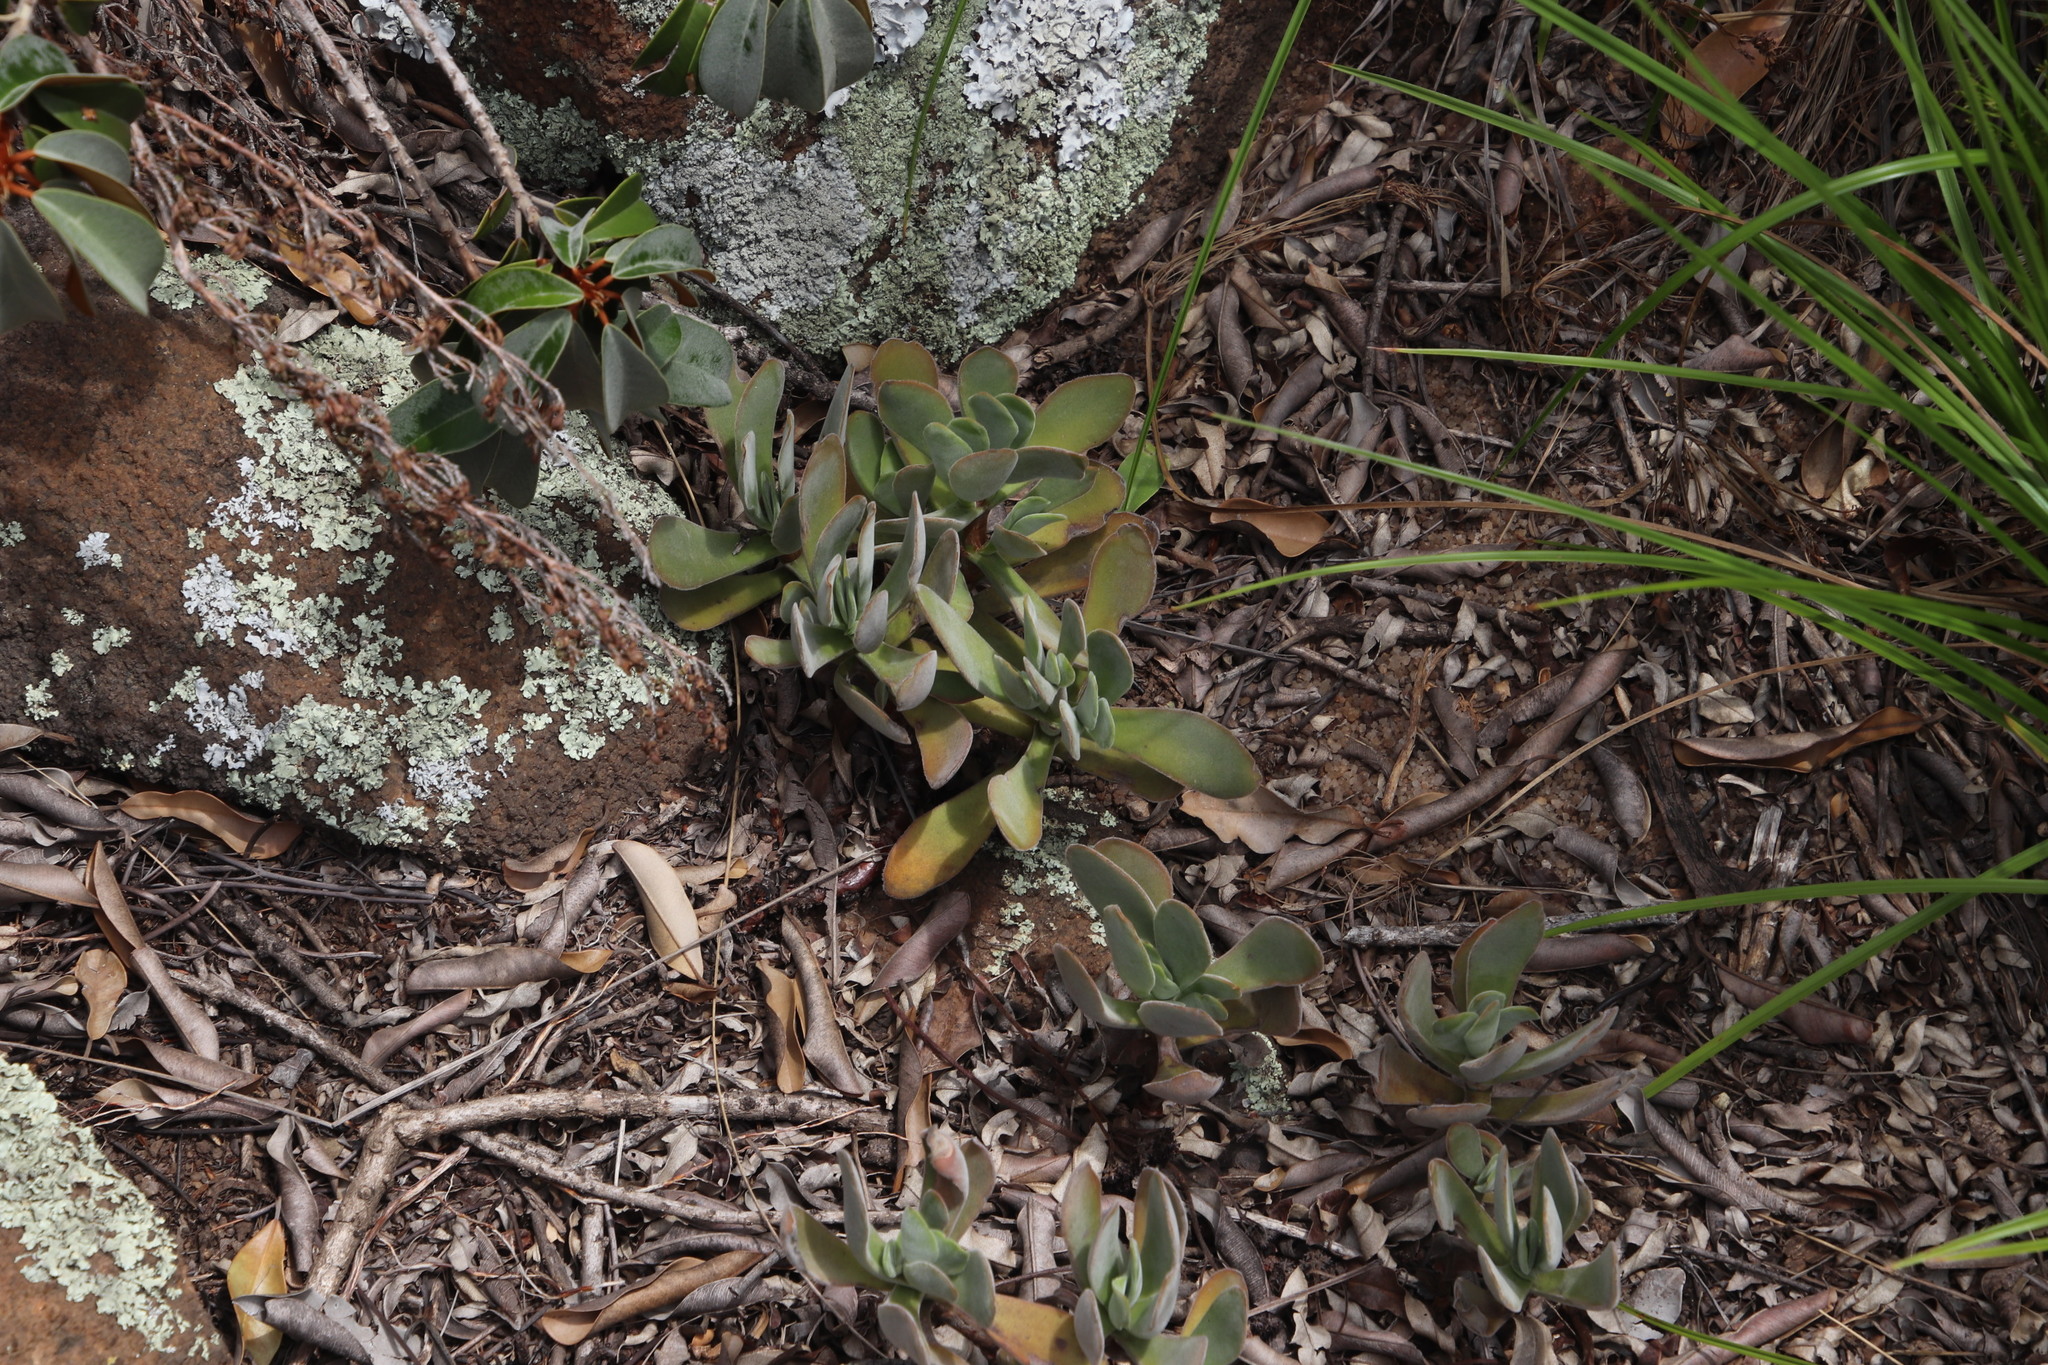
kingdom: Plantae
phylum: Tracheophyta
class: Magnoliopsida
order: Saxifragales
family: Crassulaceae
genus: Crassula
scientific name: Crassula globularioides
